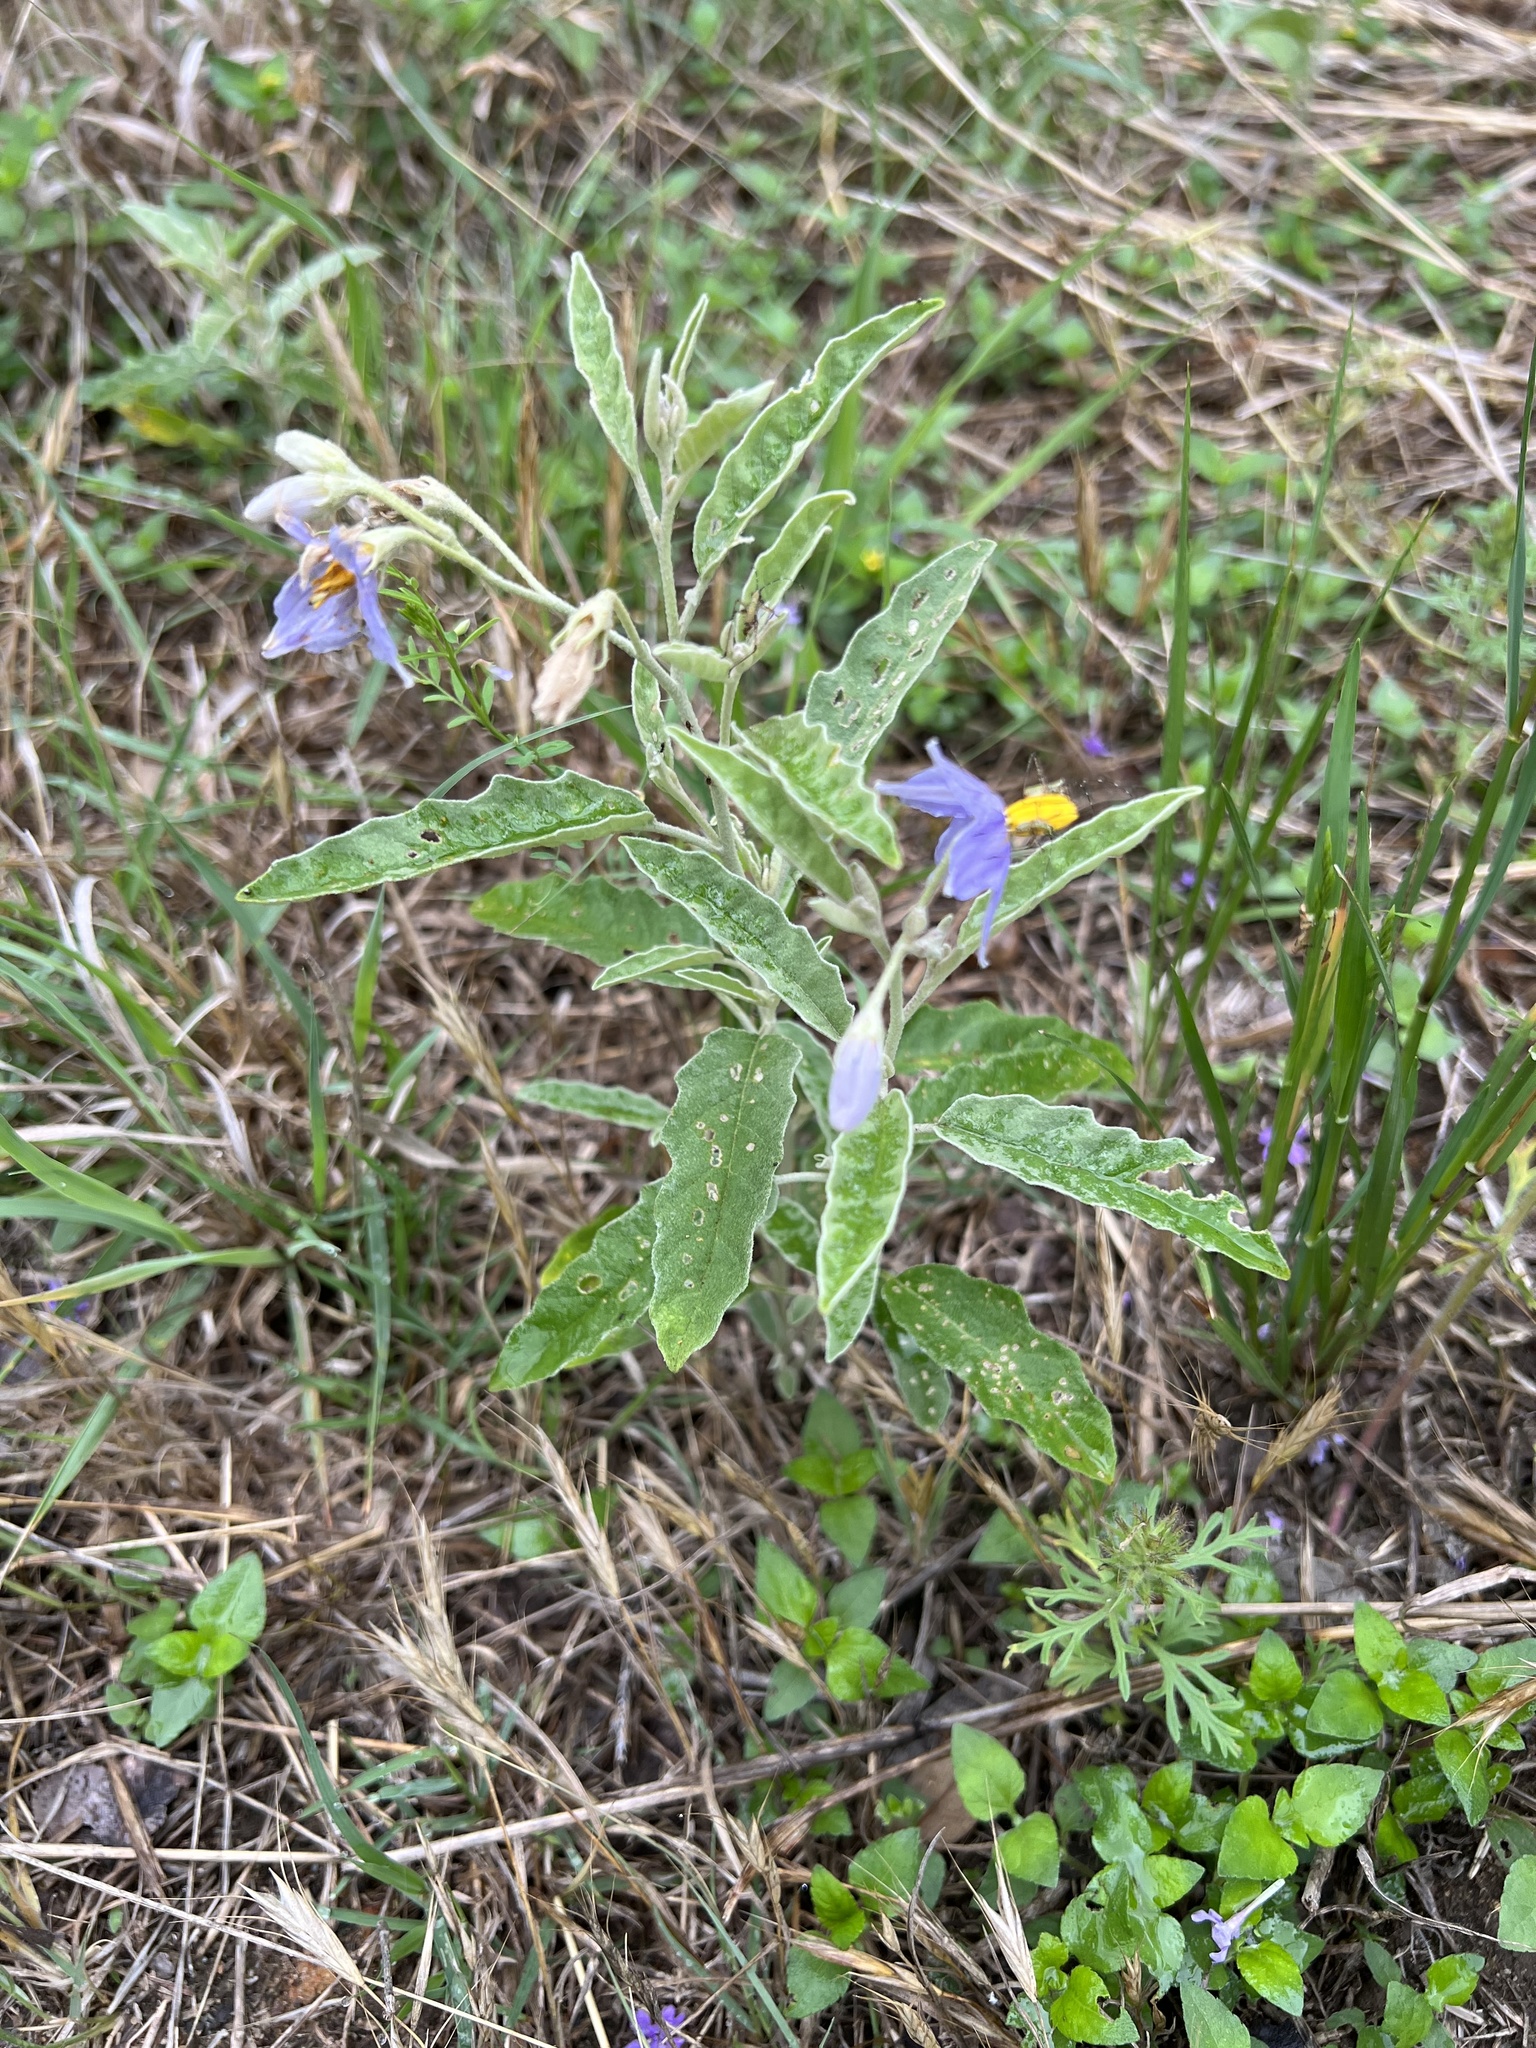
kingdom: Plantae
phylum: Tracheophyta
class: Magnoliopsida
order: Solanales
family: Solanaceae
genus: Solanum
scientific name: Solanum elaeagnifolium
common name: Silverleaf nightshade
